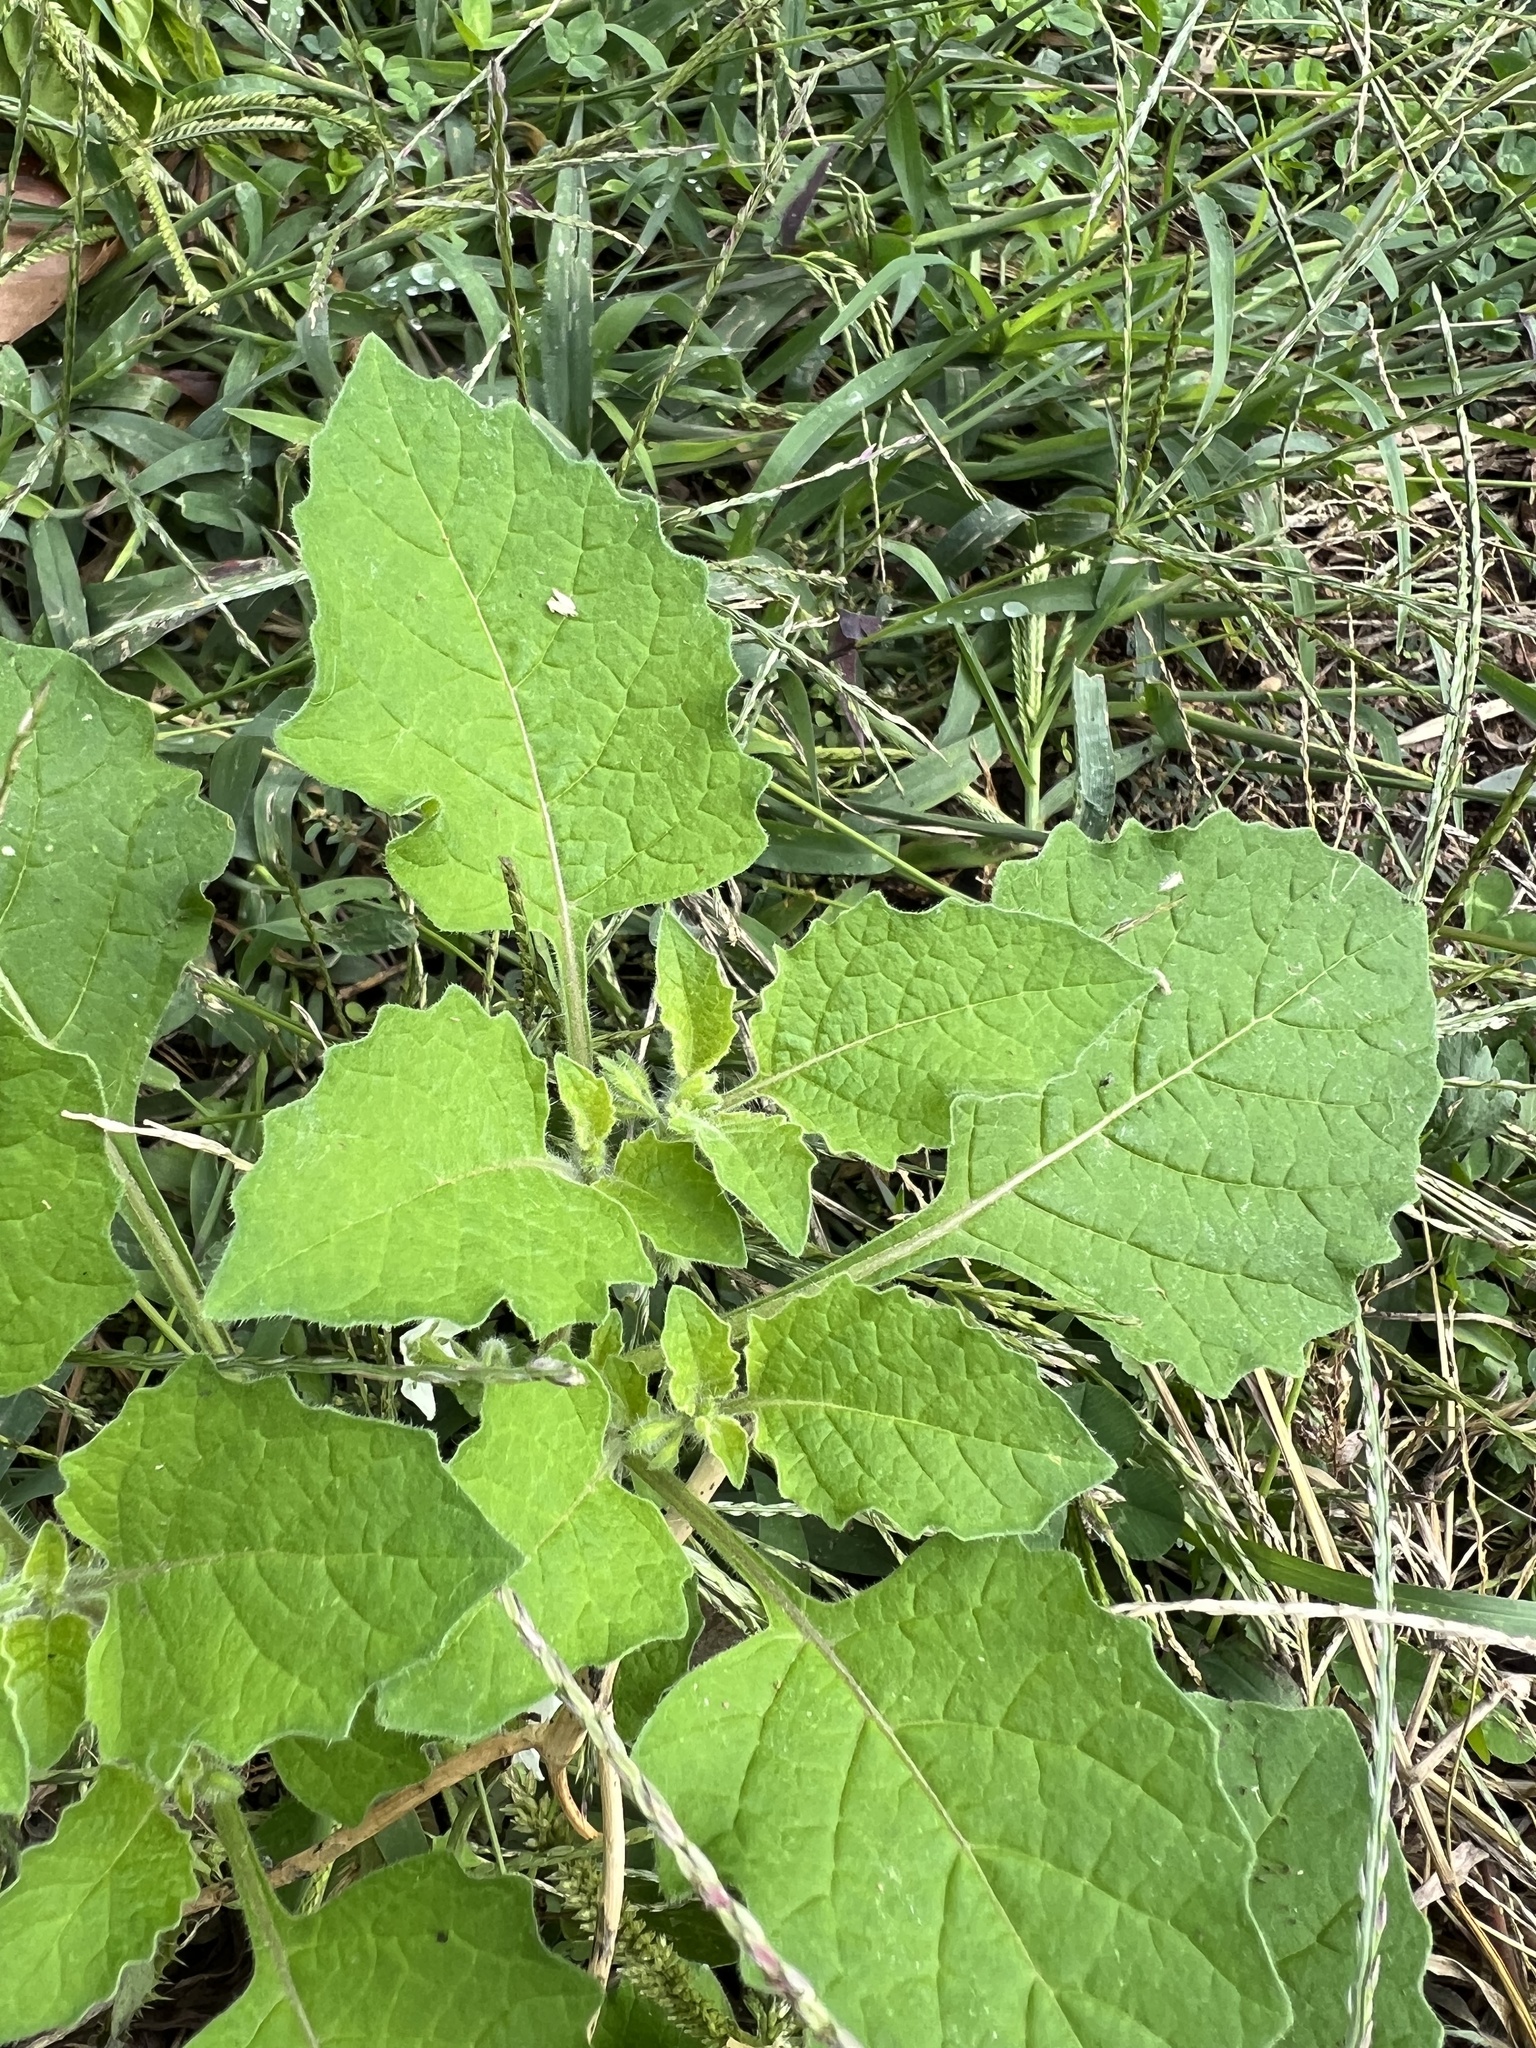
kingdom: Plantae
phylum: Tracheophyta
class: Magnoliopsida
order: Solanales
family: Solanaceae
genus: Solanum
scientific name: Solanum sarrachoides
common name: Leafy-fruited nightshade
